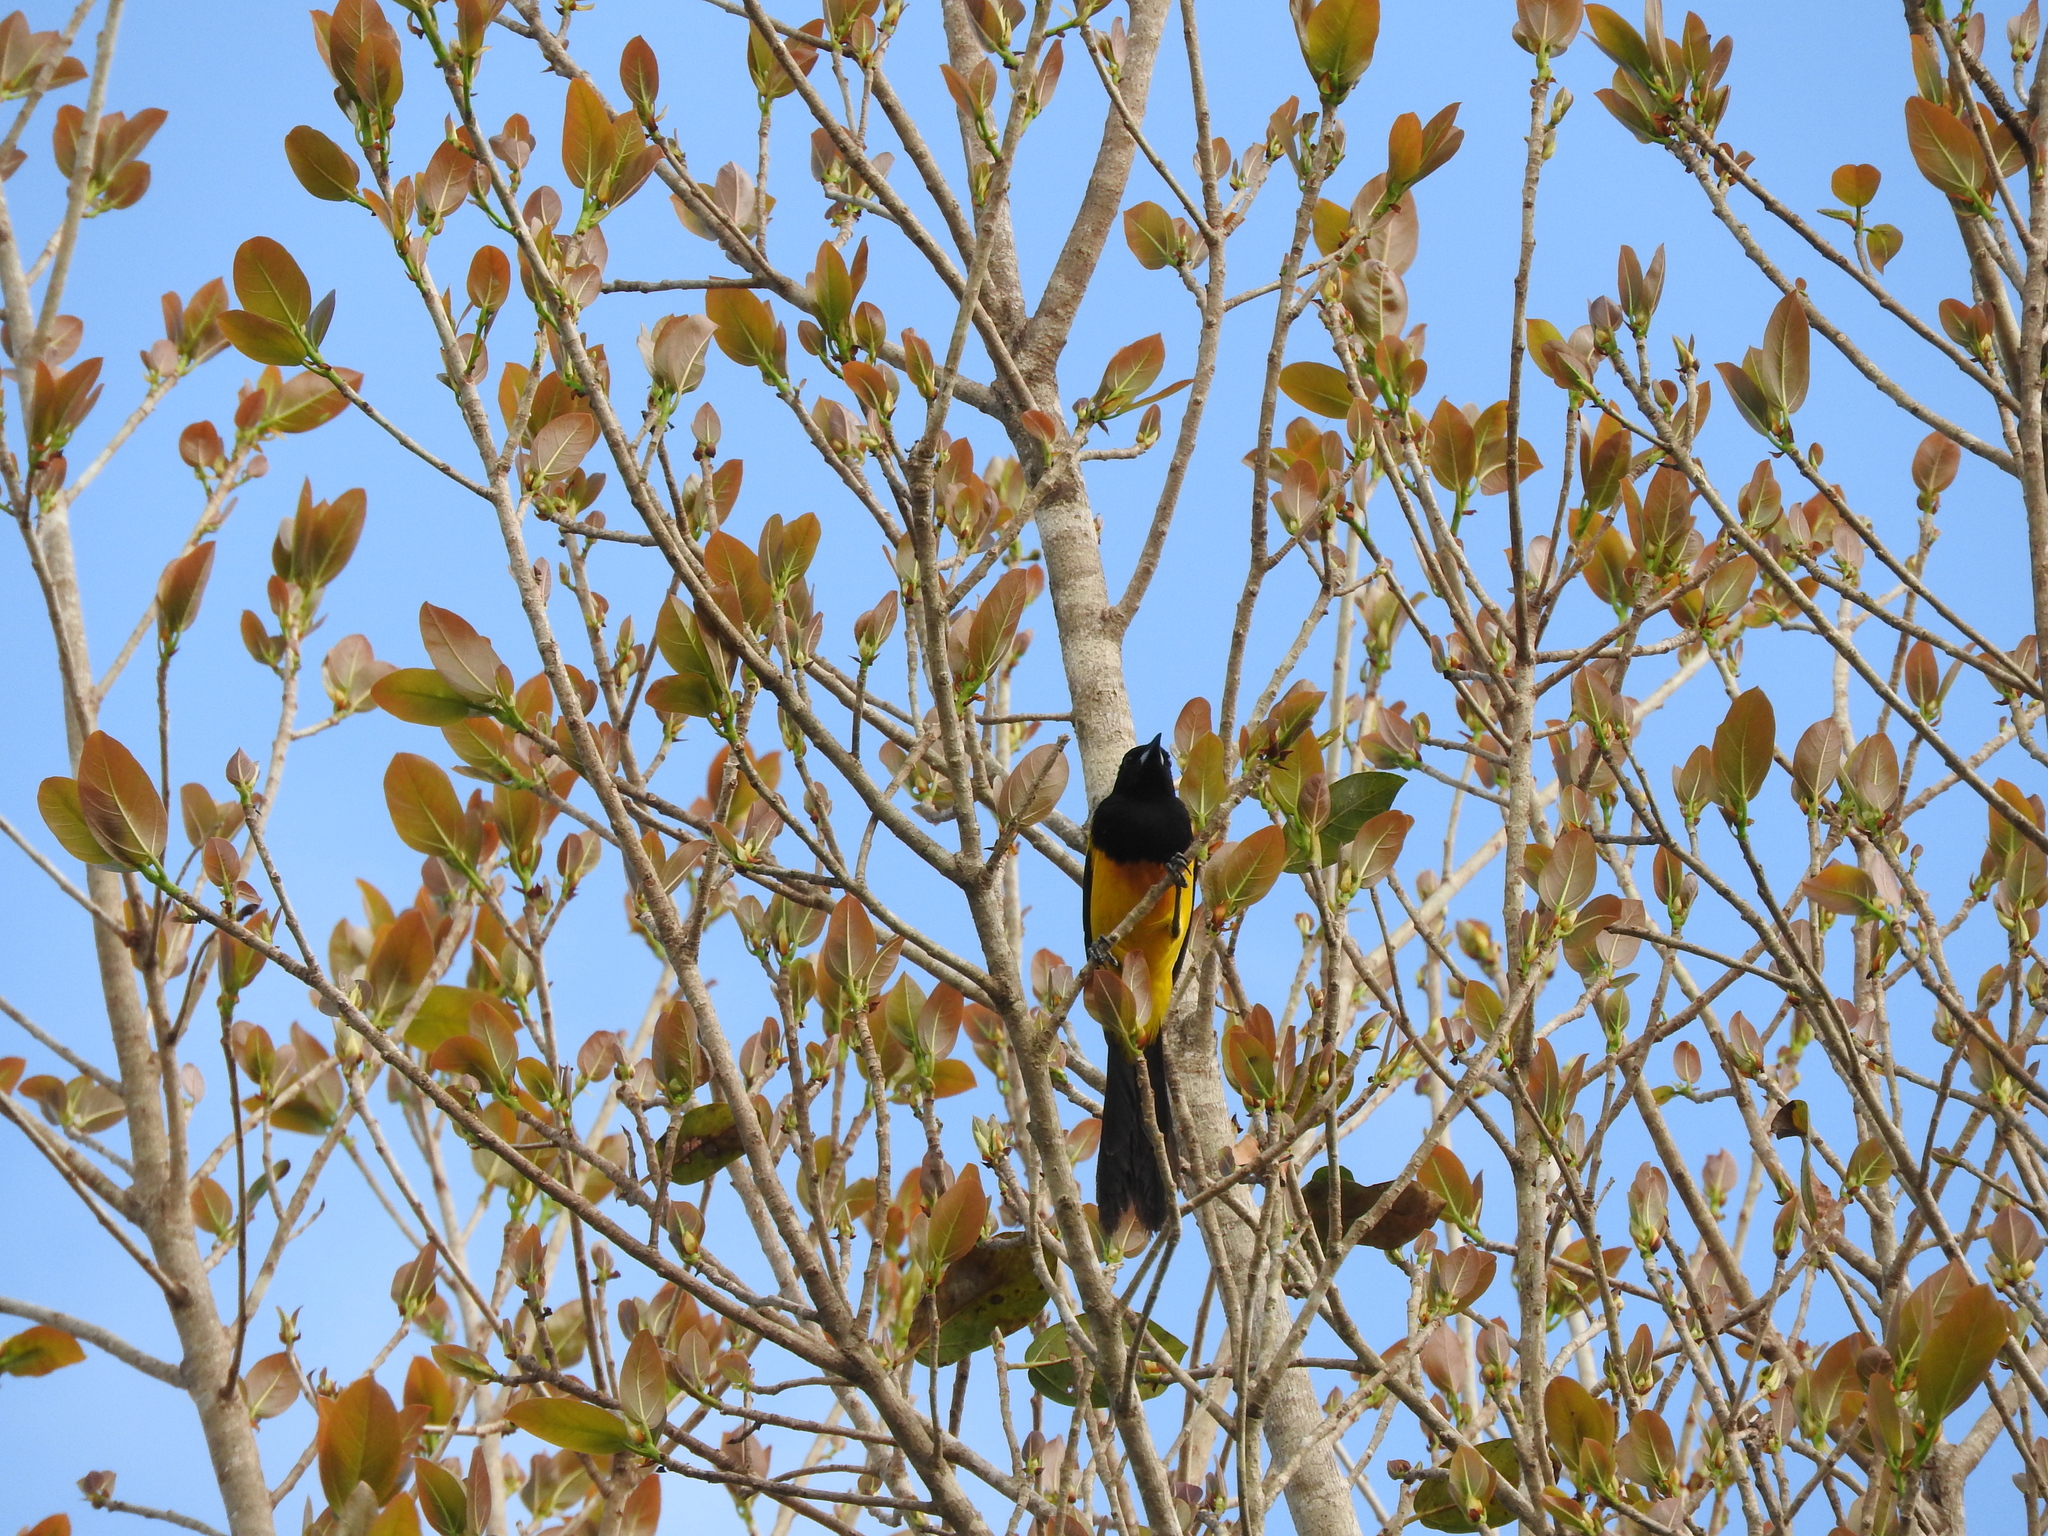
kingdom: Animalia
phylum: Chordata
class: Aves
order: Passeriformes
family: Icteridae
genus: Icterus
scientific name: Icterus prosthemelas
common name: Black-cowled oriole
